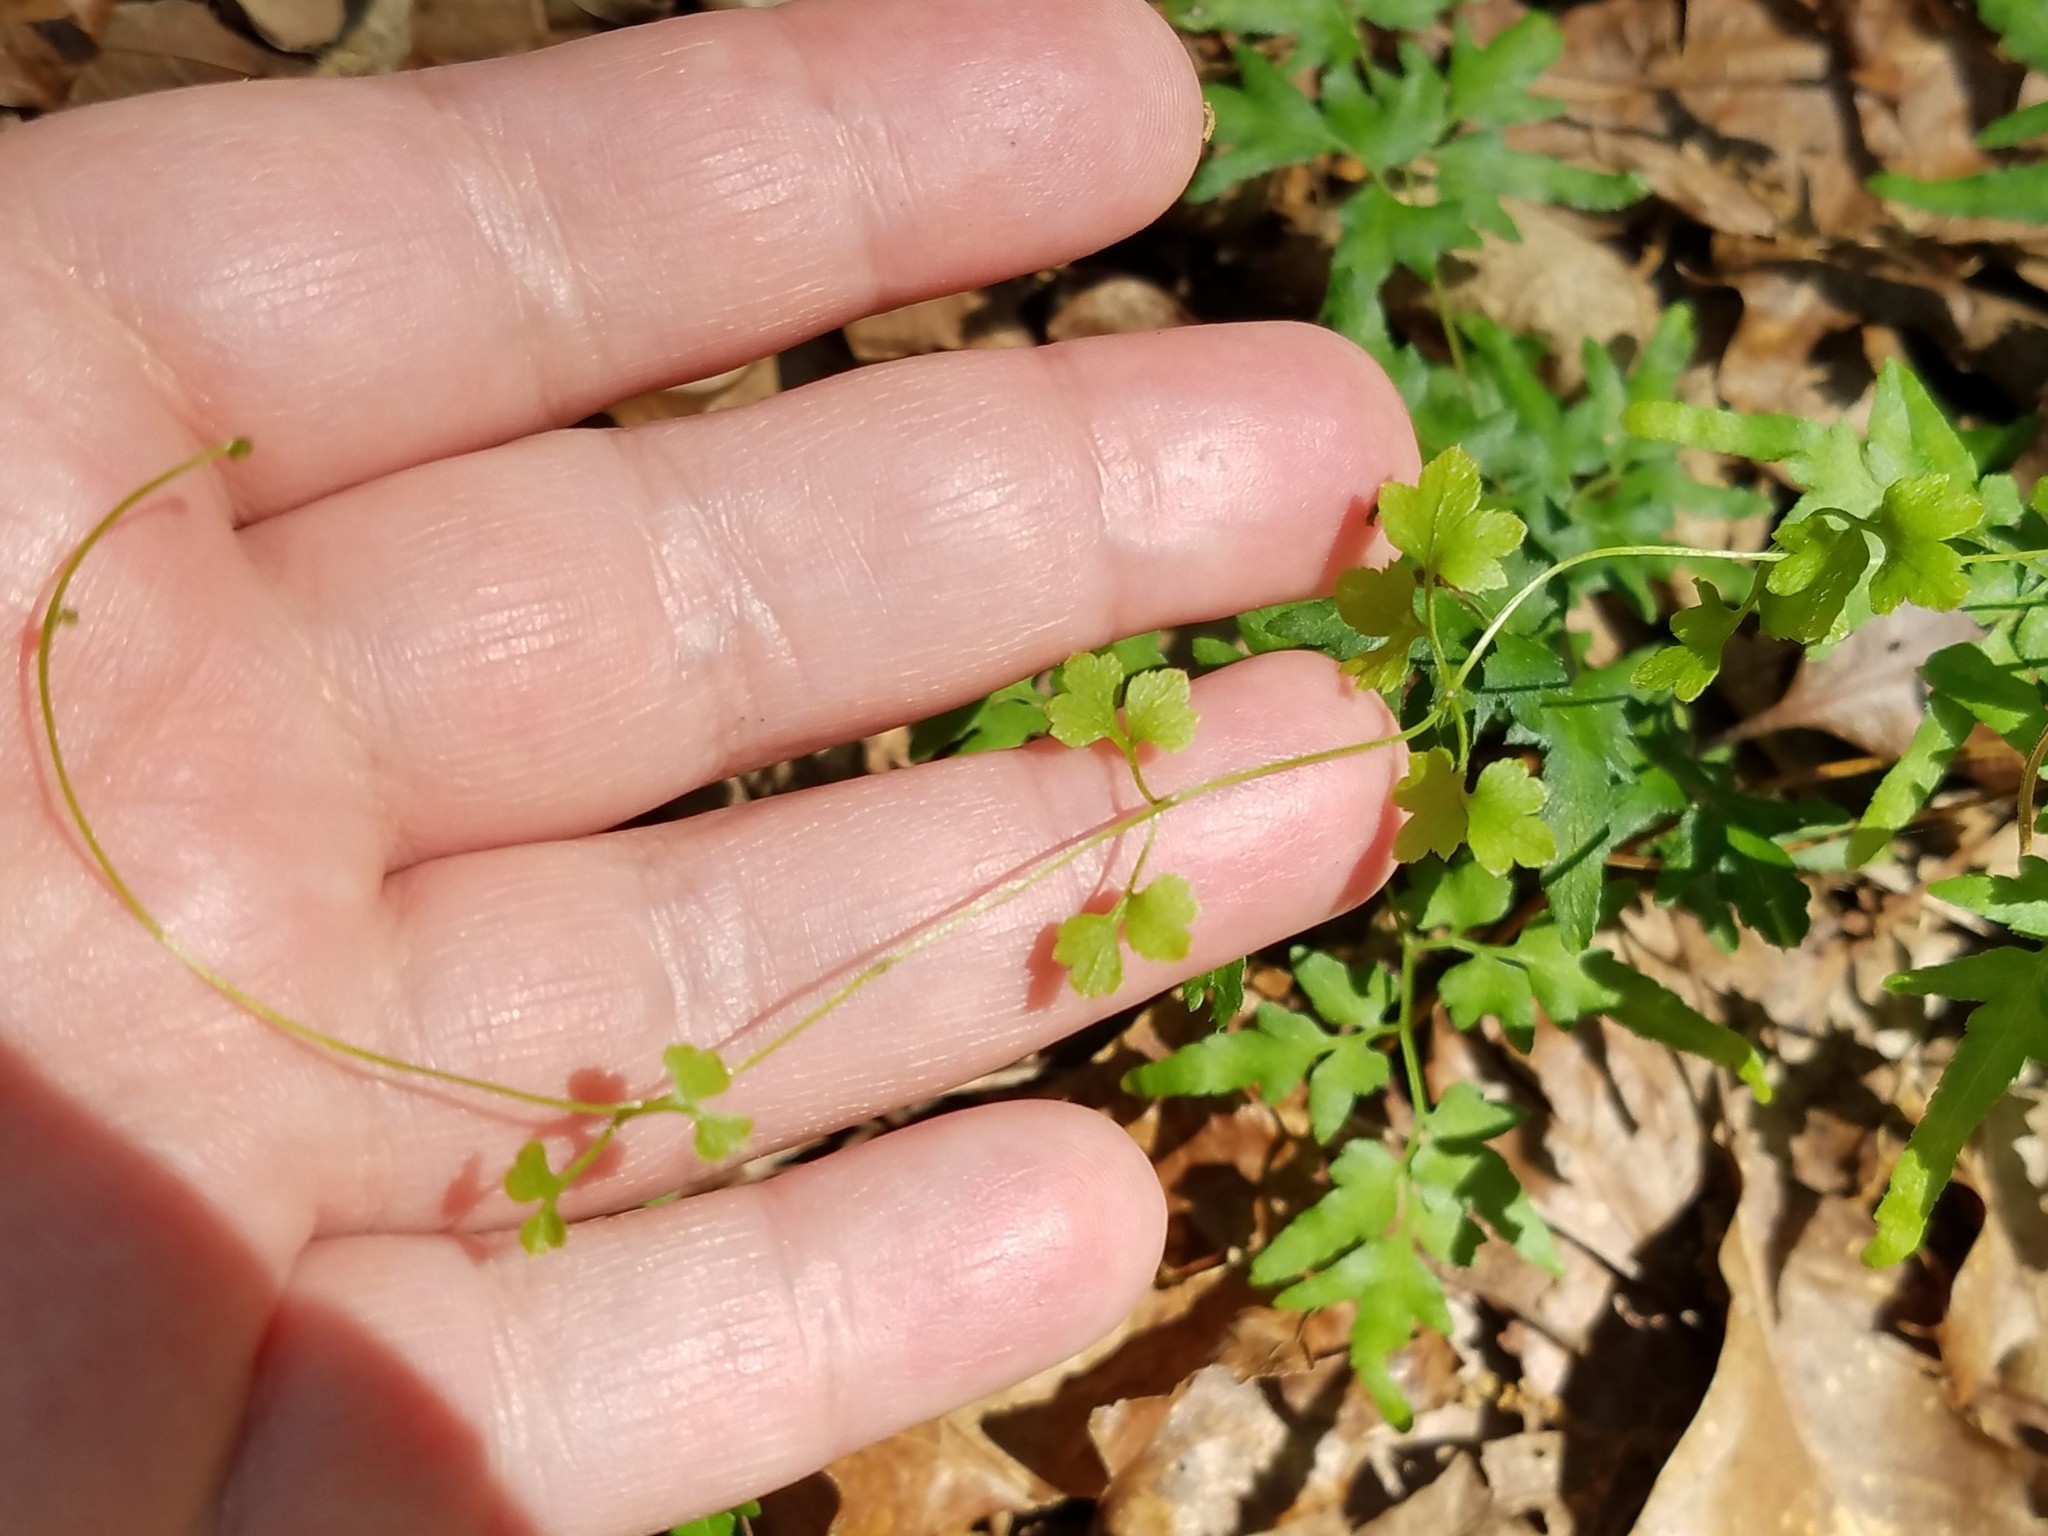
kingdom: Plantae
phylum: Tracheophyta
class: Polypodiopsida
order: Schizaeales
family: Lygodiaceae
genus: Lygodium
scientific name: Lygodium japonicum
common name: Japanese climbing fern
